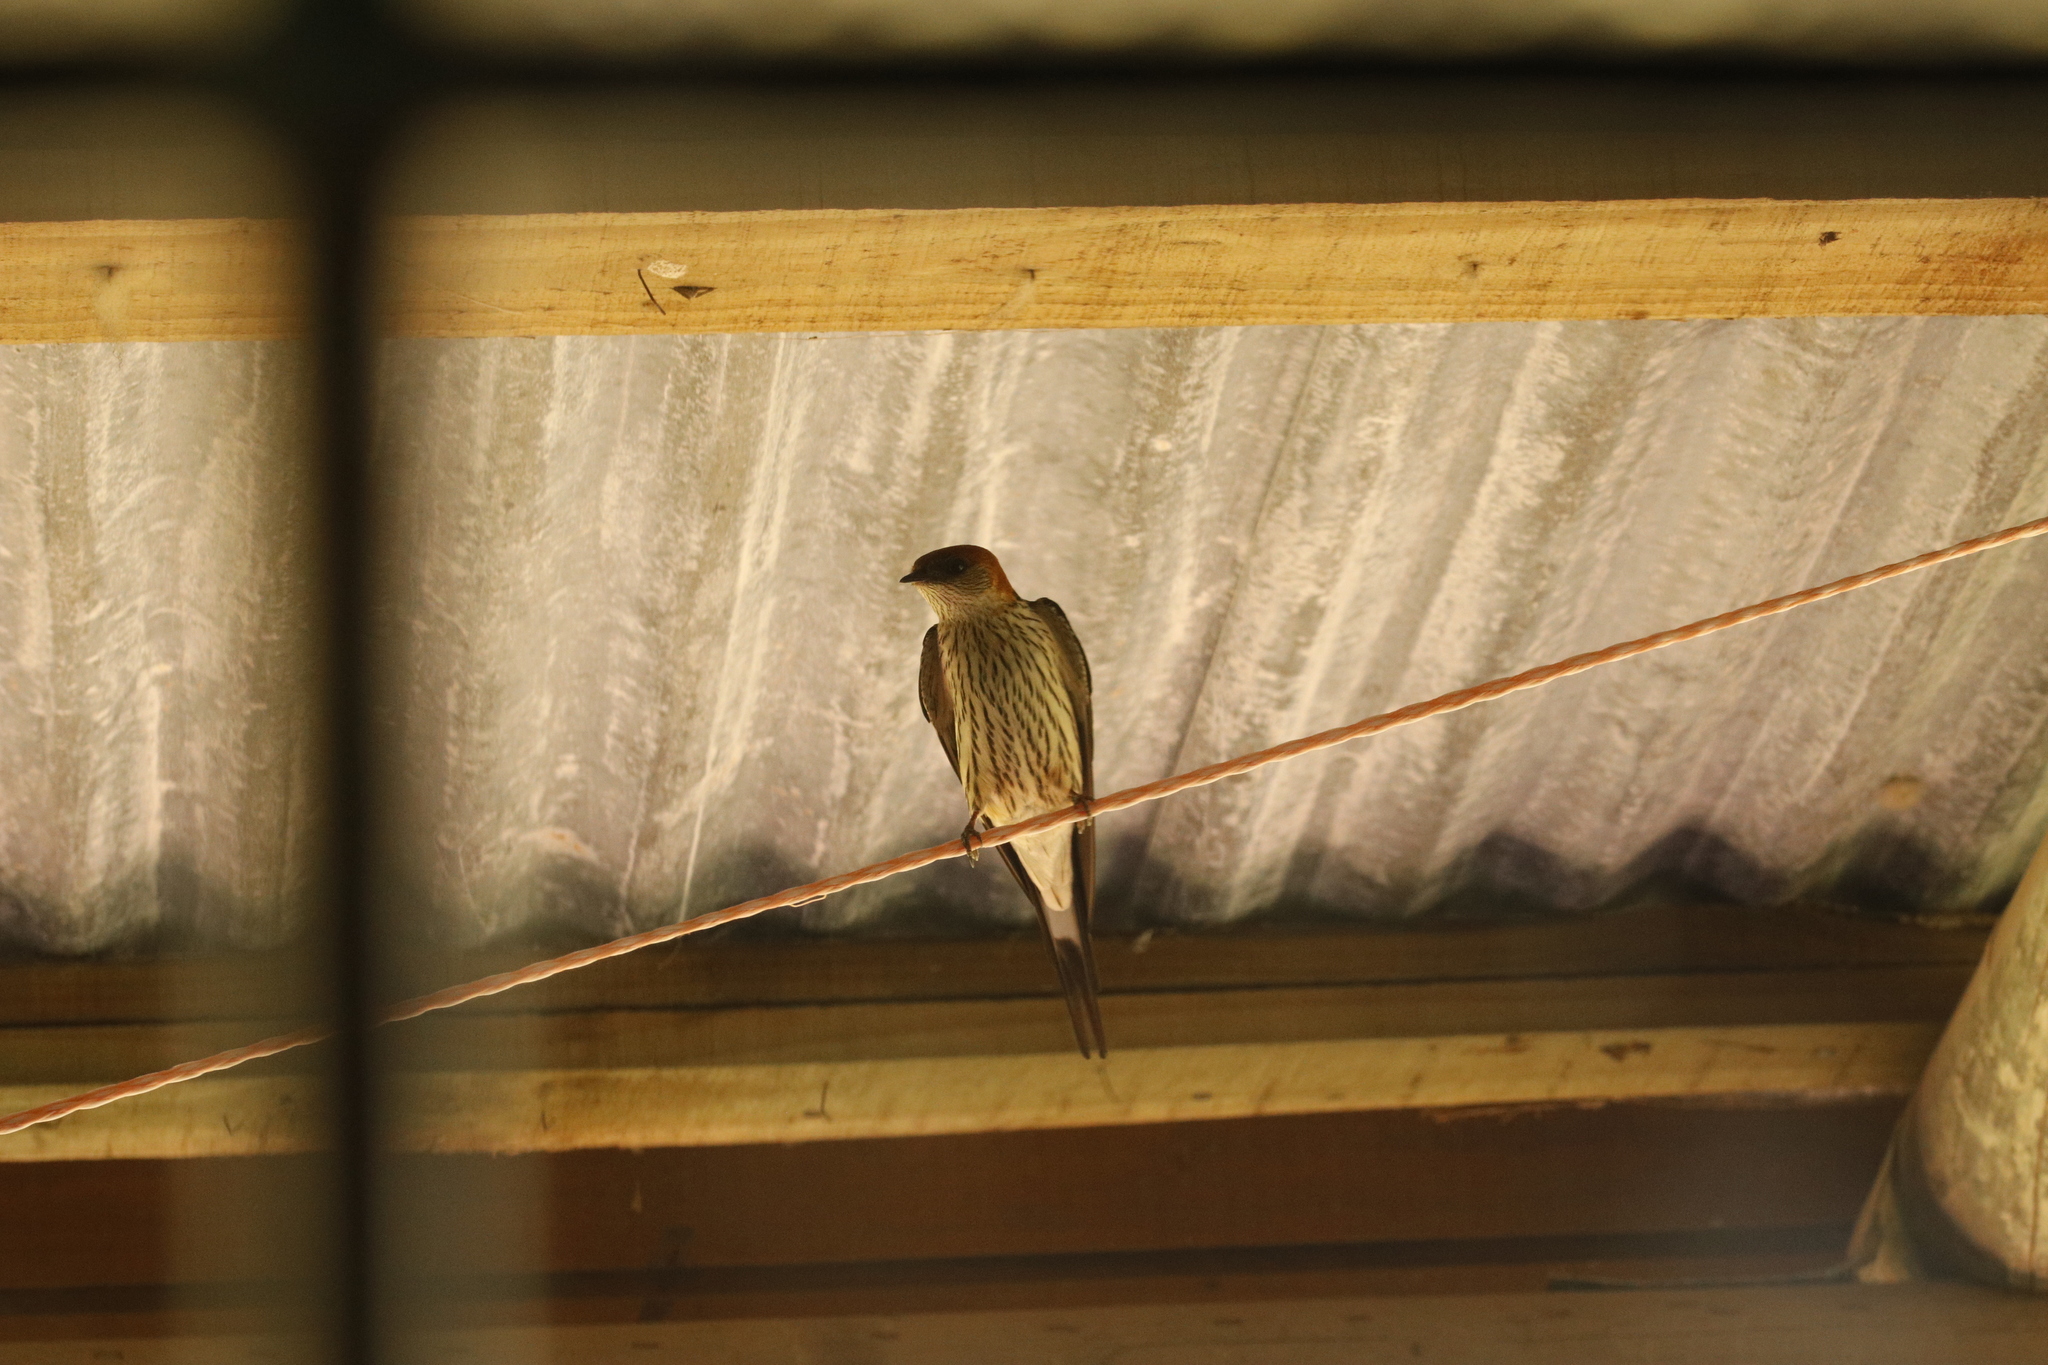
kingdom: Animalia
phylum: Chordata
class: Aves
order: Passeriformes
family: Hirundinidae
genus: Cecropis
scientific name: Cecropis cucullata
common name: Greater striped-swallow
